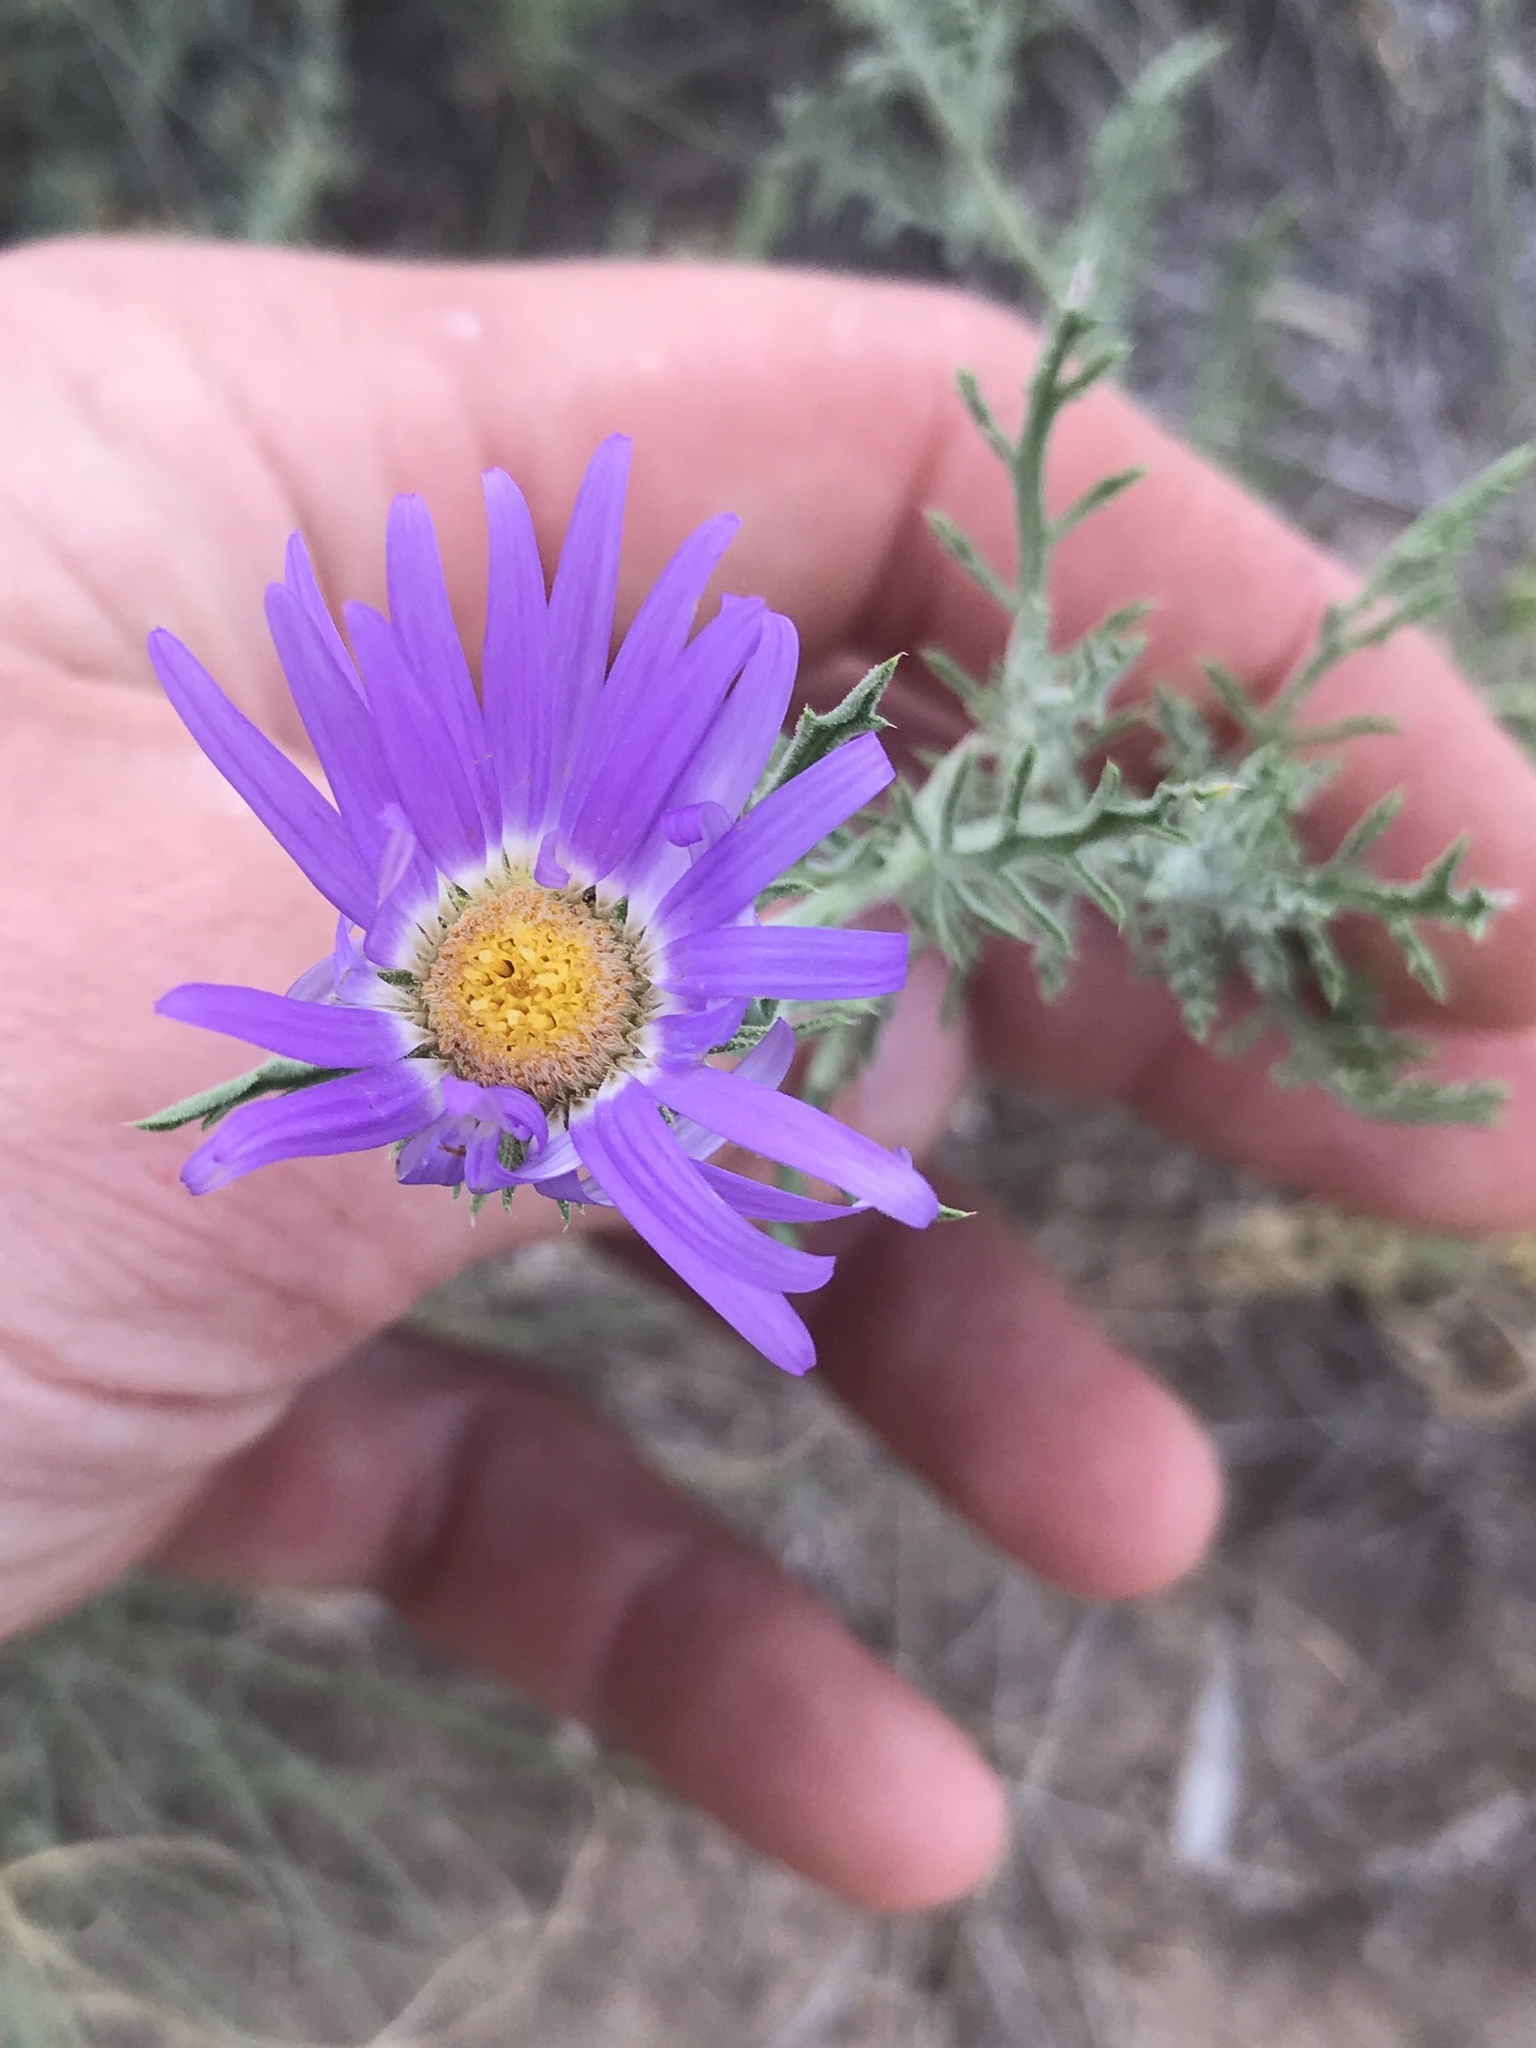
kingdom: Plantae
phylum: Tracheophyta
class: Magnoliopsida
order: Asterales
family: Asteraceae
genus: Machaeranthera
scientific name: Machaeranthera tanacetifolia
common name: Tansy-aster
